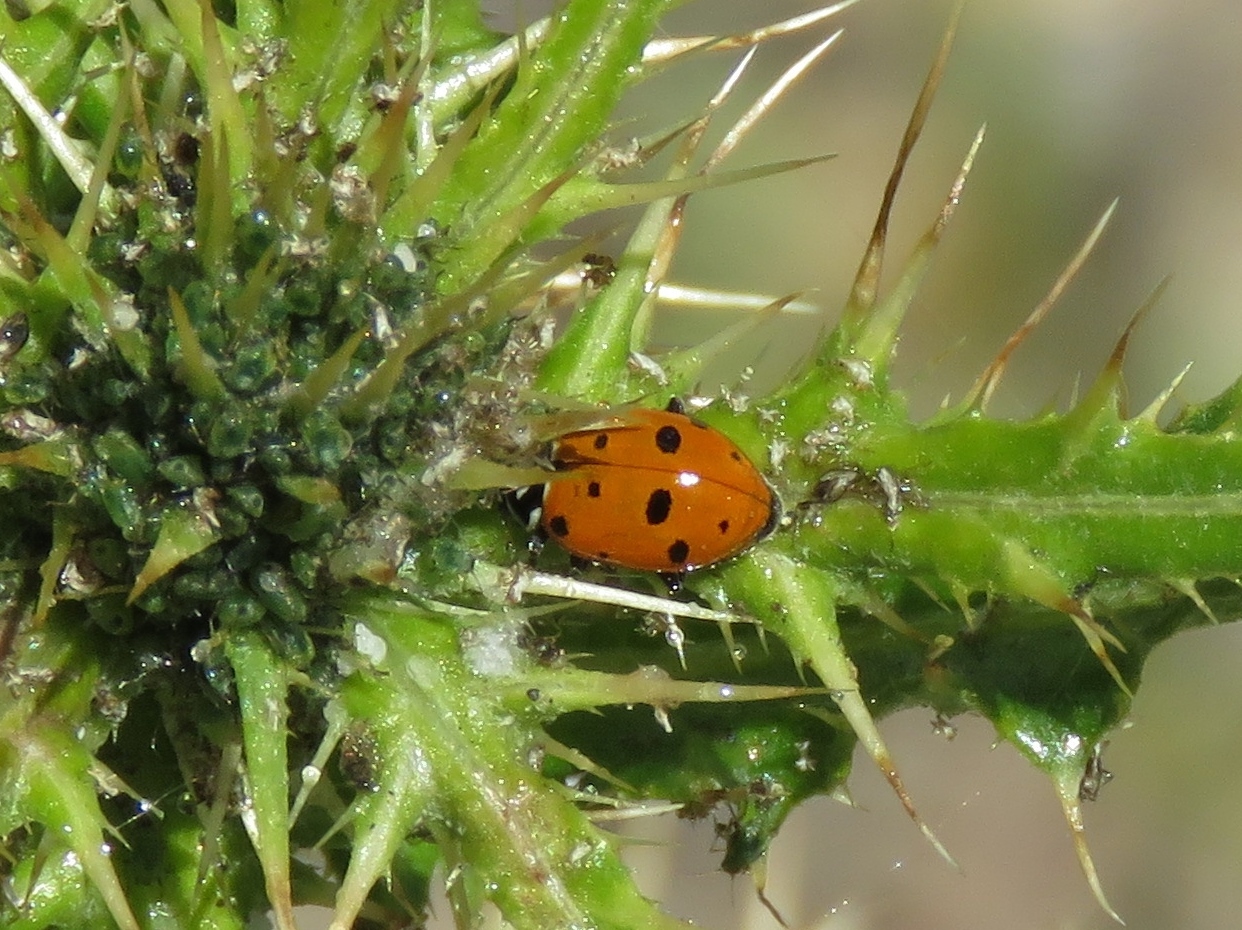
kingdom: Animalia
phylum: Arthropoda
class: Insecta
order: Coleoptera
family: Coccinellidae
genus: Hippodamia
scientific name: Hippodamia convergens
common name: Convergent lady beetle
